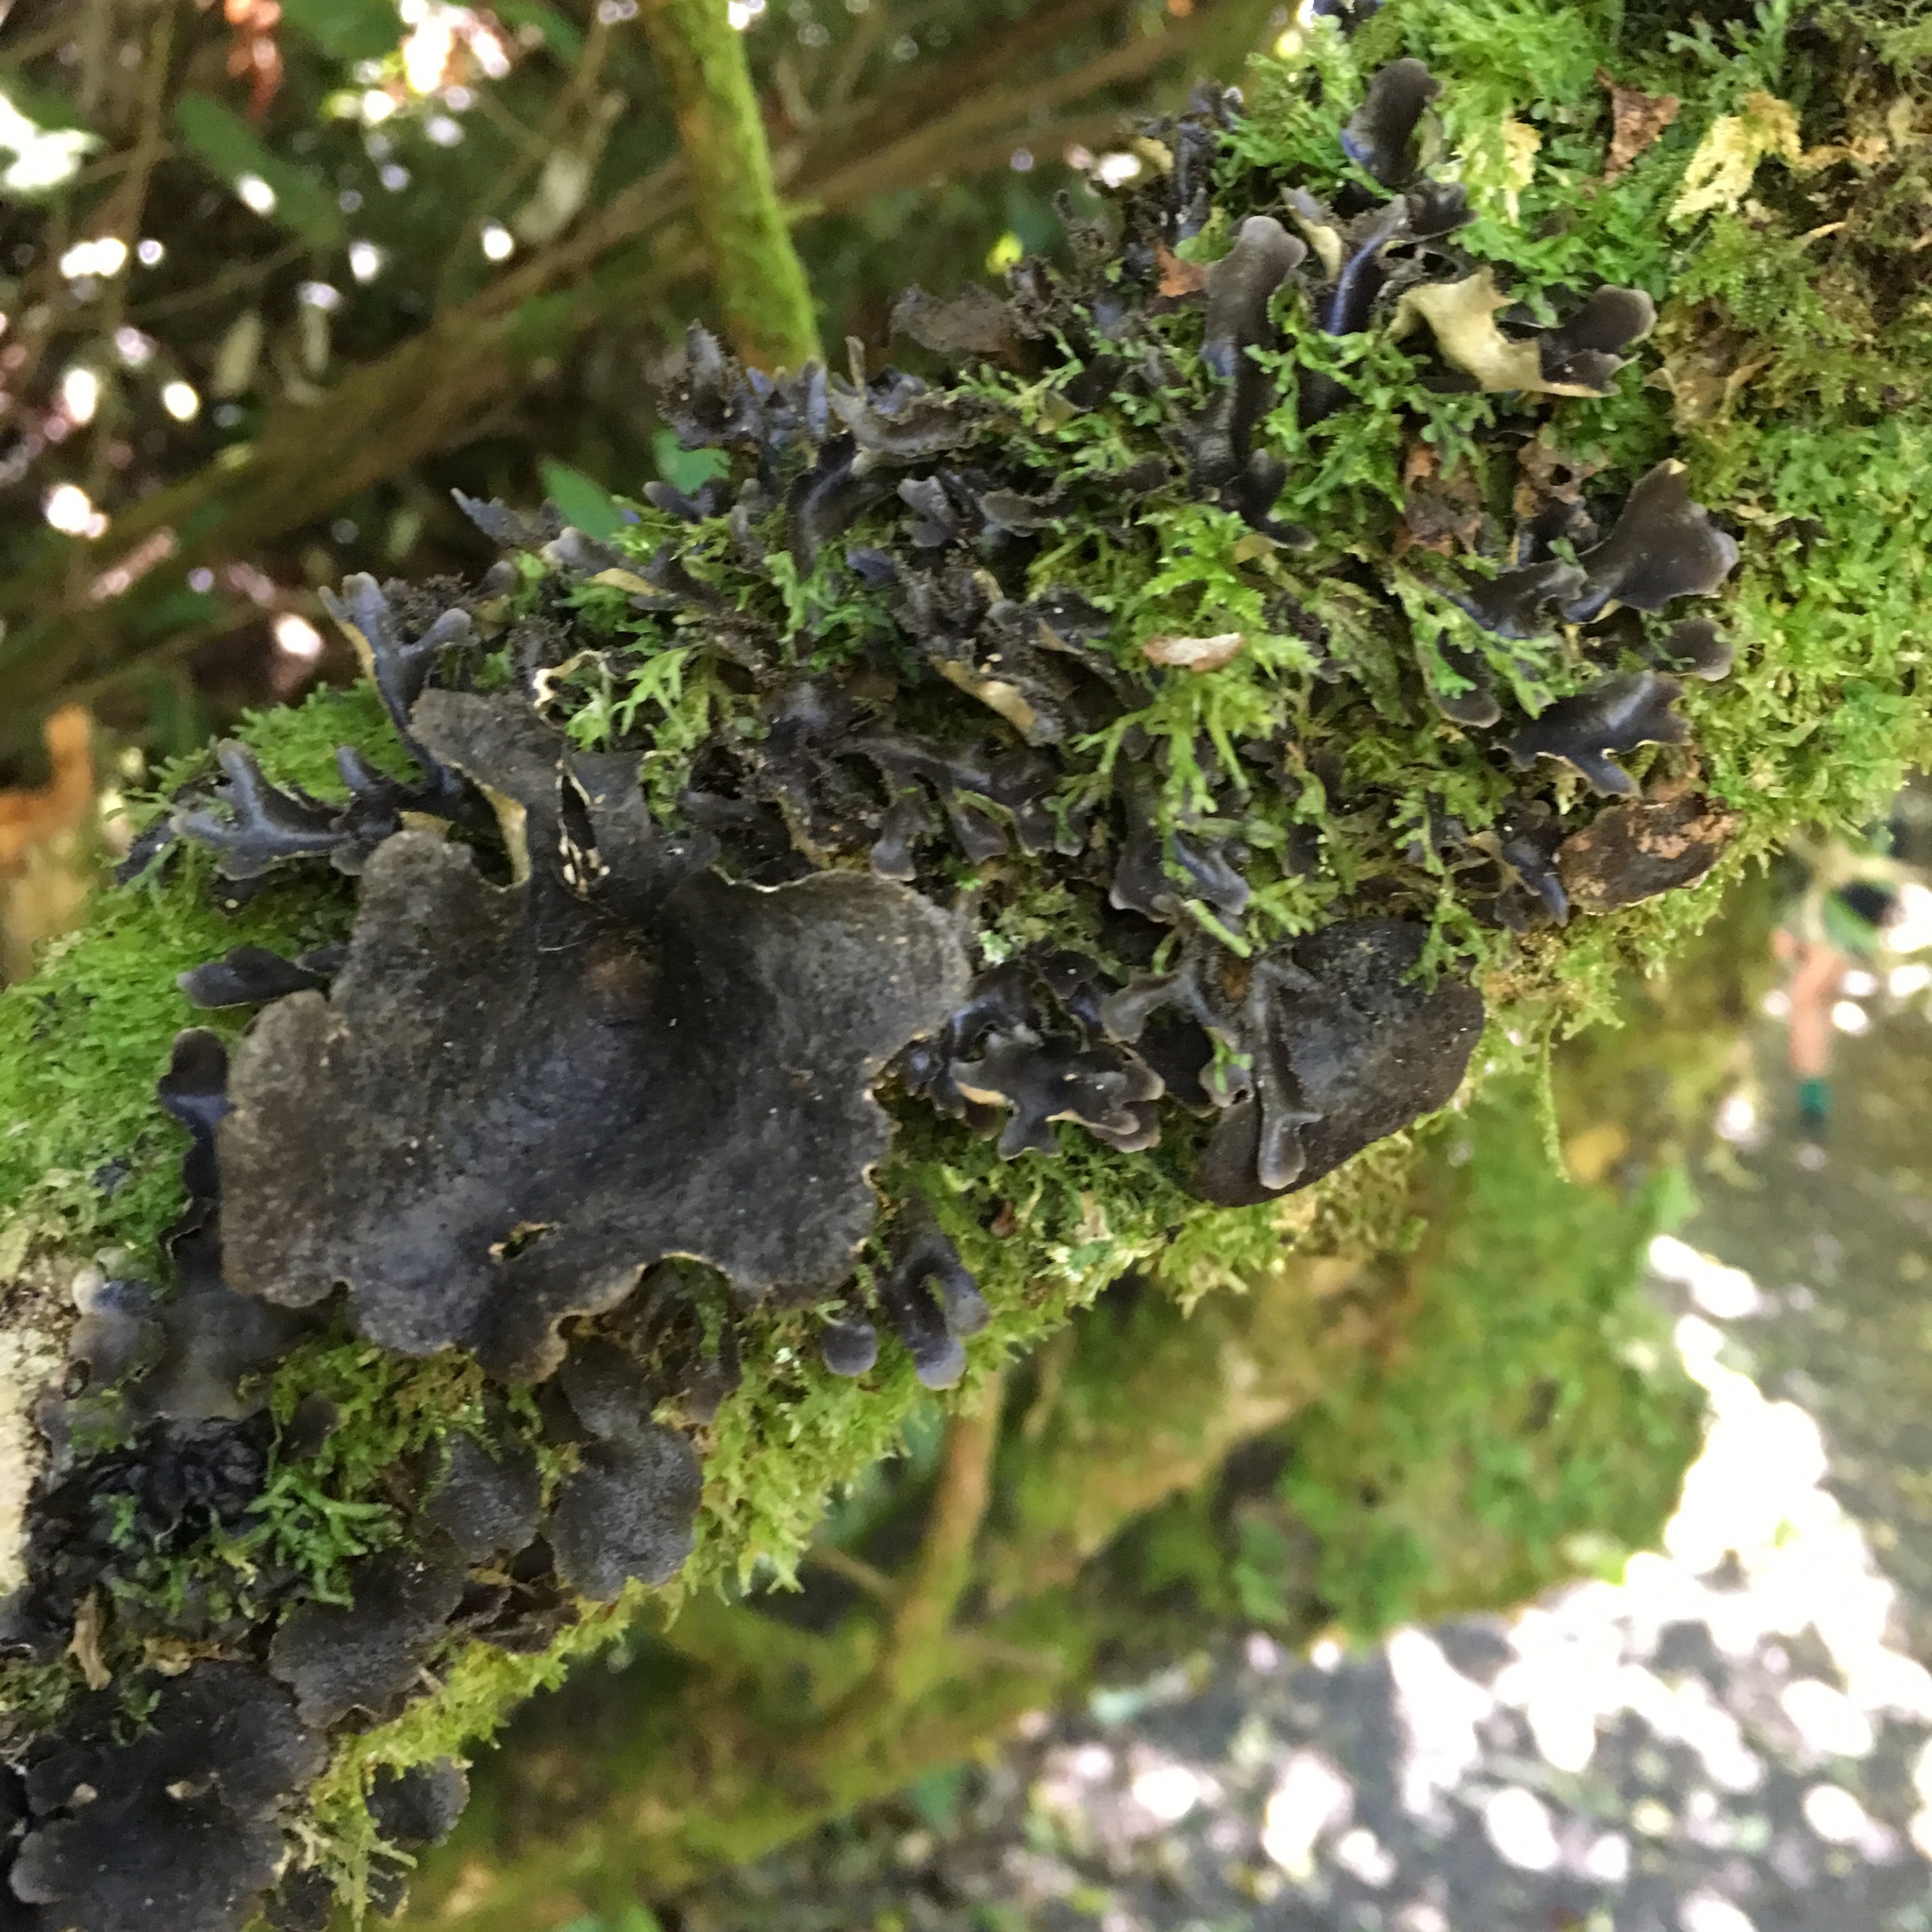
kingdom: Fungi
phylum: Ascomycota
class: Lecanoromycetes
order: Peltigerales
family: Lobariaceae
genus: Pseudocyphellaria
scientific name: Pseudocyphellaria dissimilis
